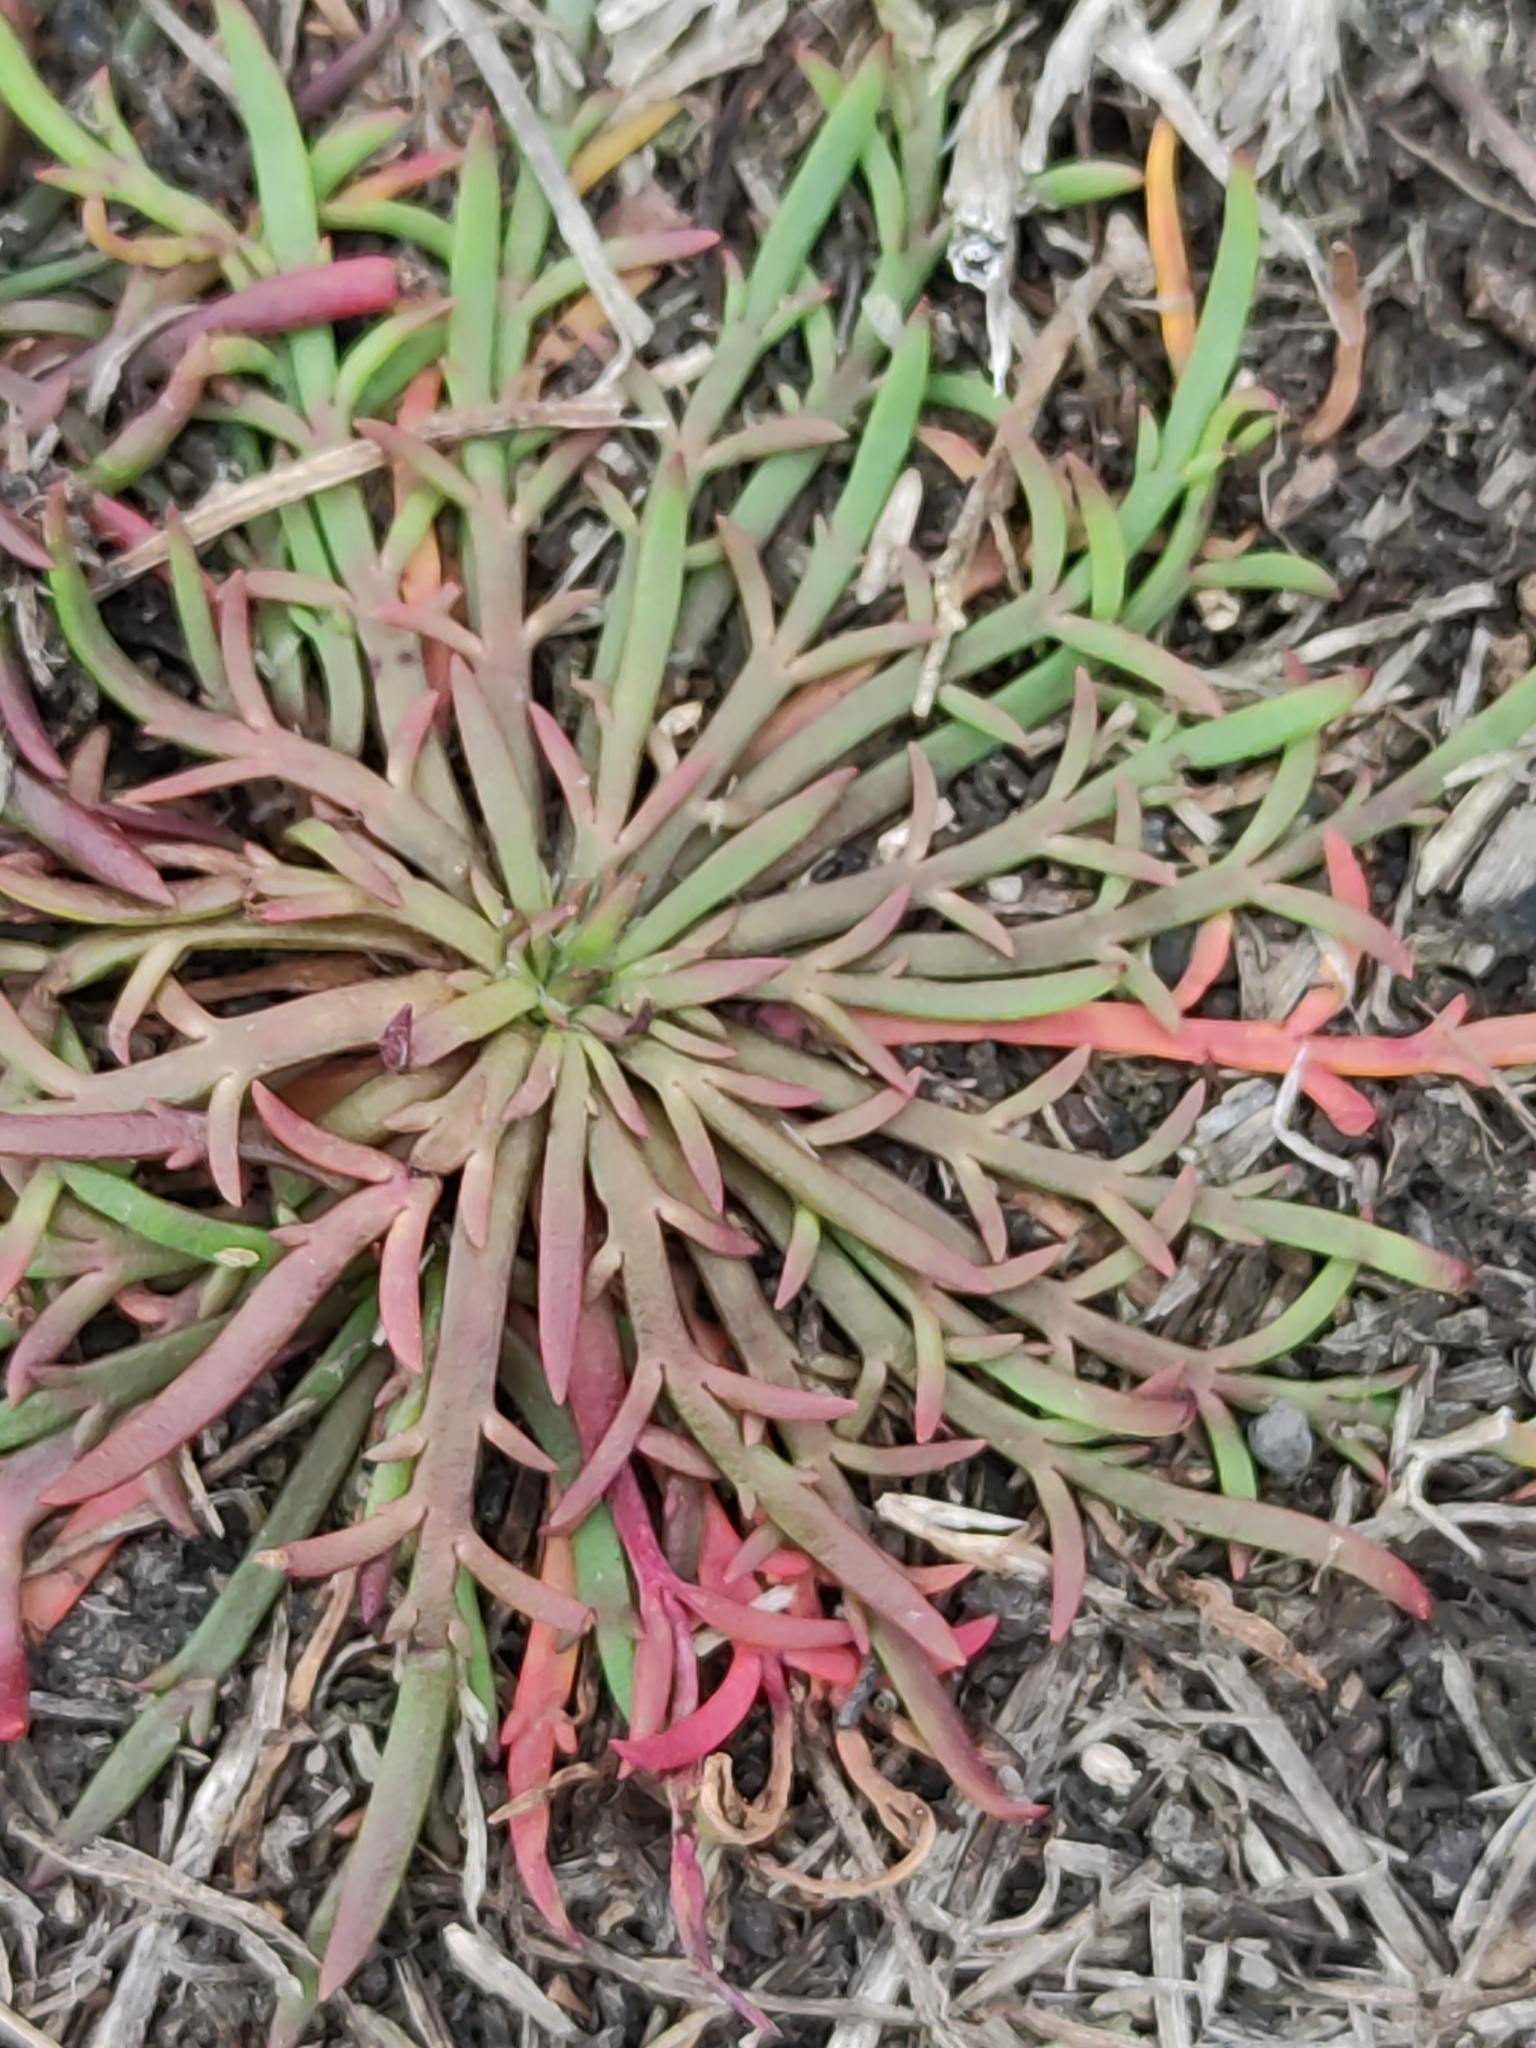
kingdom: Plantae
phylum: Tracheophyta
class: Magnoliopsida
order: Lamiales
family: Plantaginaceae
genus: Plantago
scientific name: Plantago coronopus
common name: Buck's-horn plantain
